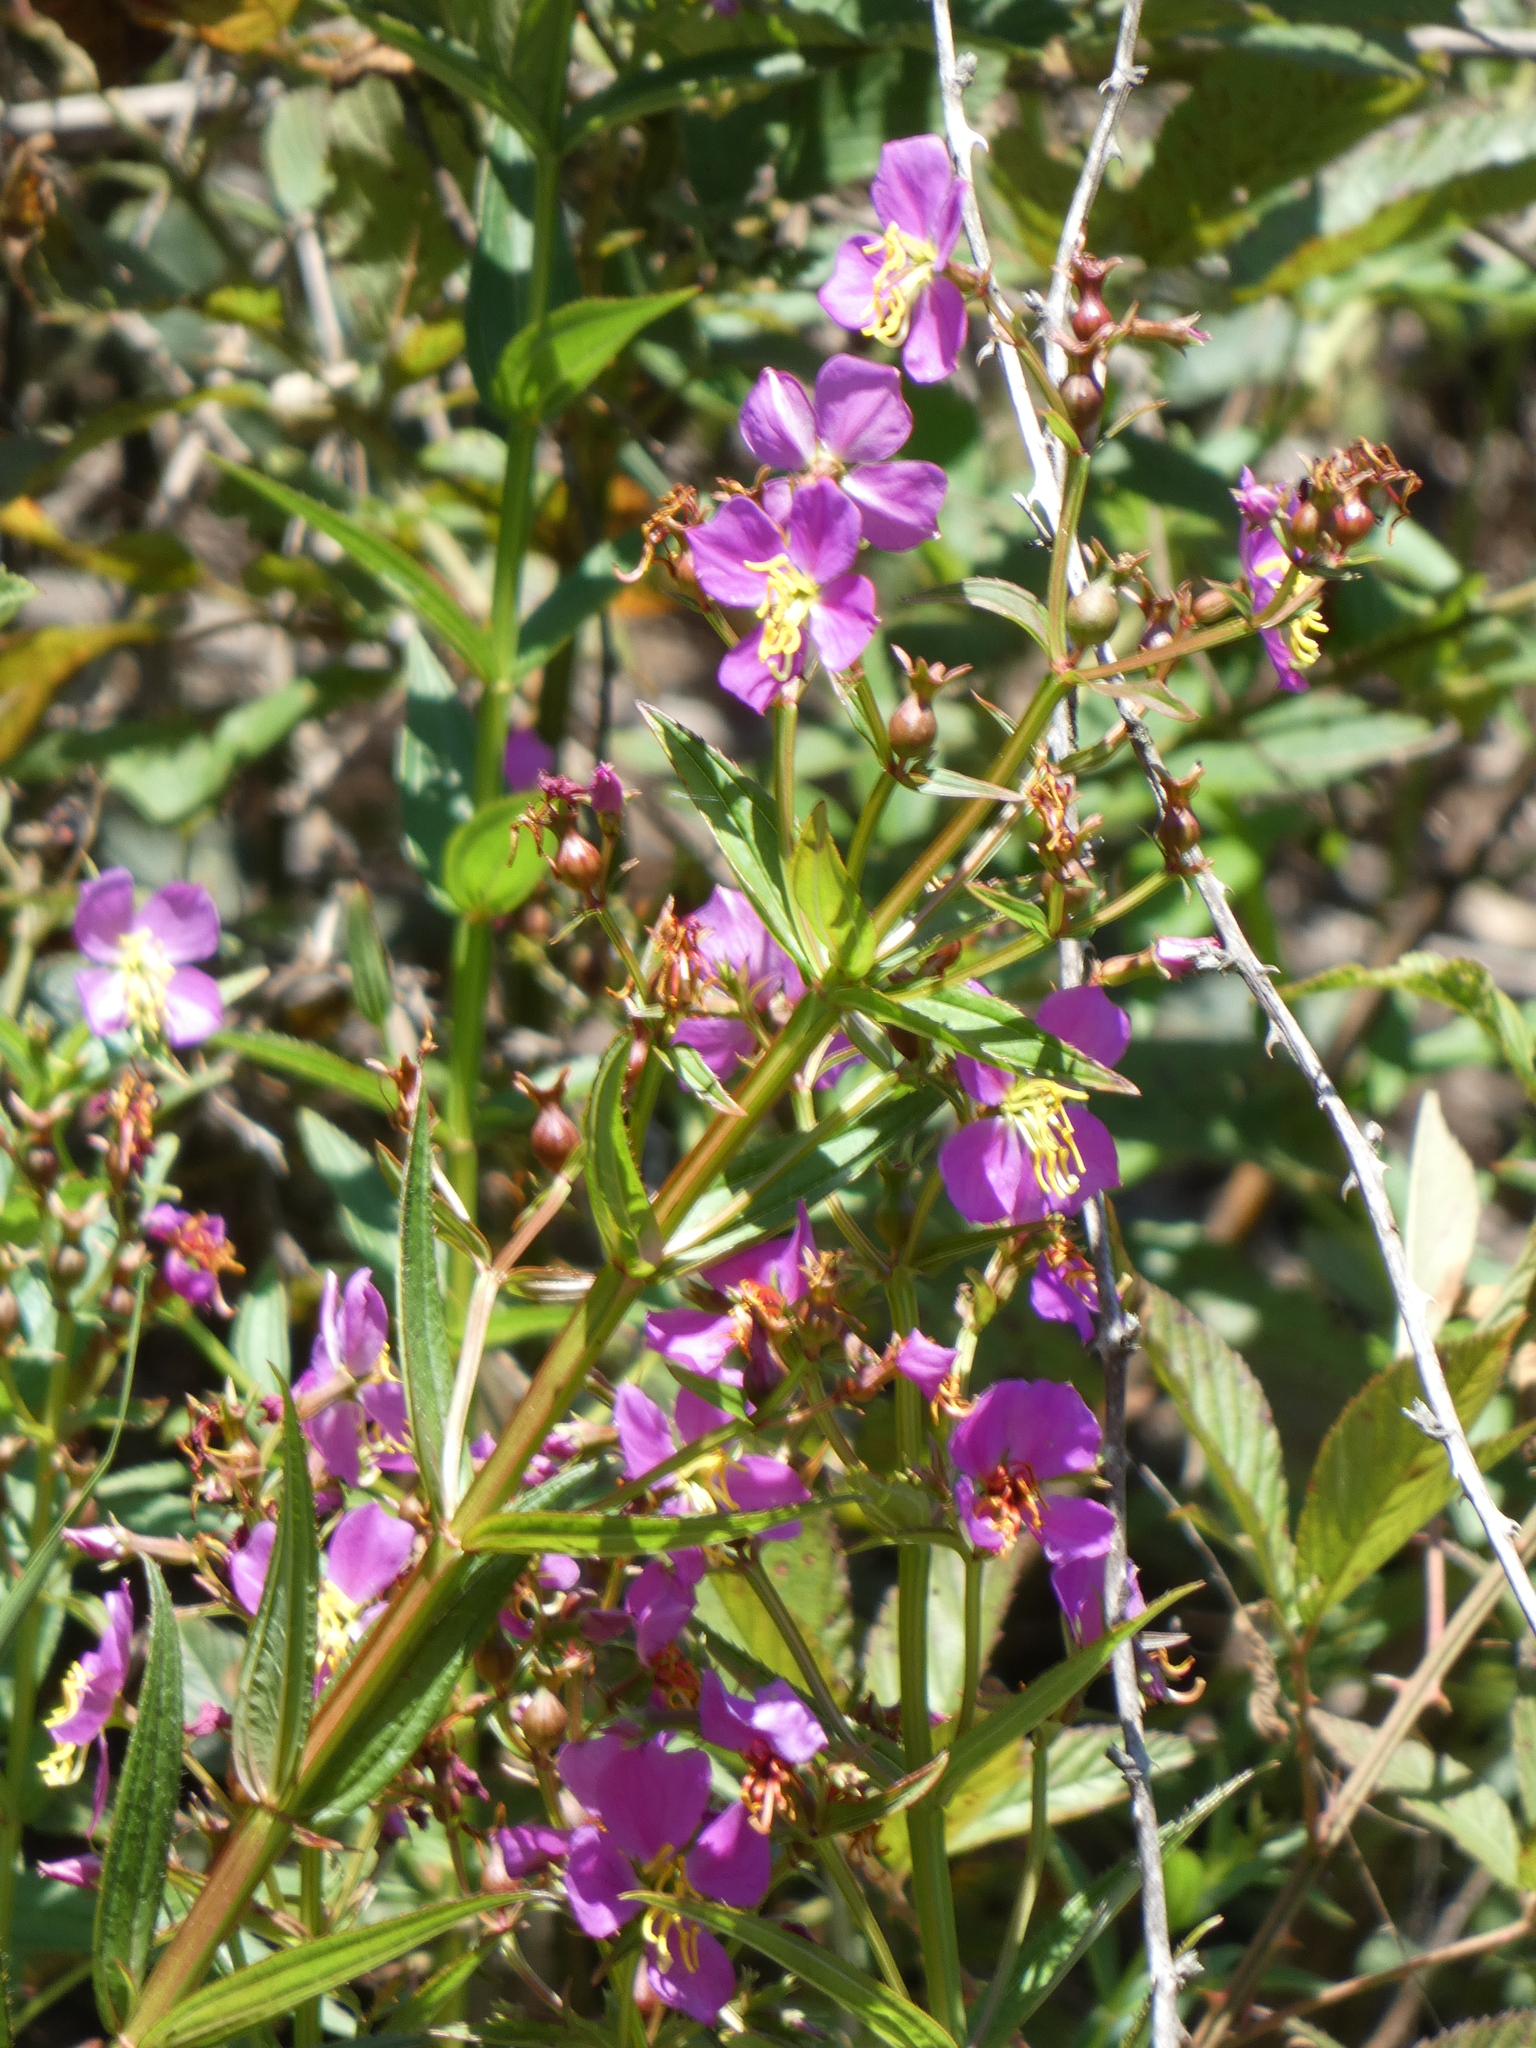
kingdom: Plantae
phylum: Tracheophyta
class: Magnoliopsida
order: Myrtales
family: Melastomataceae
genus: Rhexia
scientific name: Rhexia virginica
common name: Common meadow beauty
